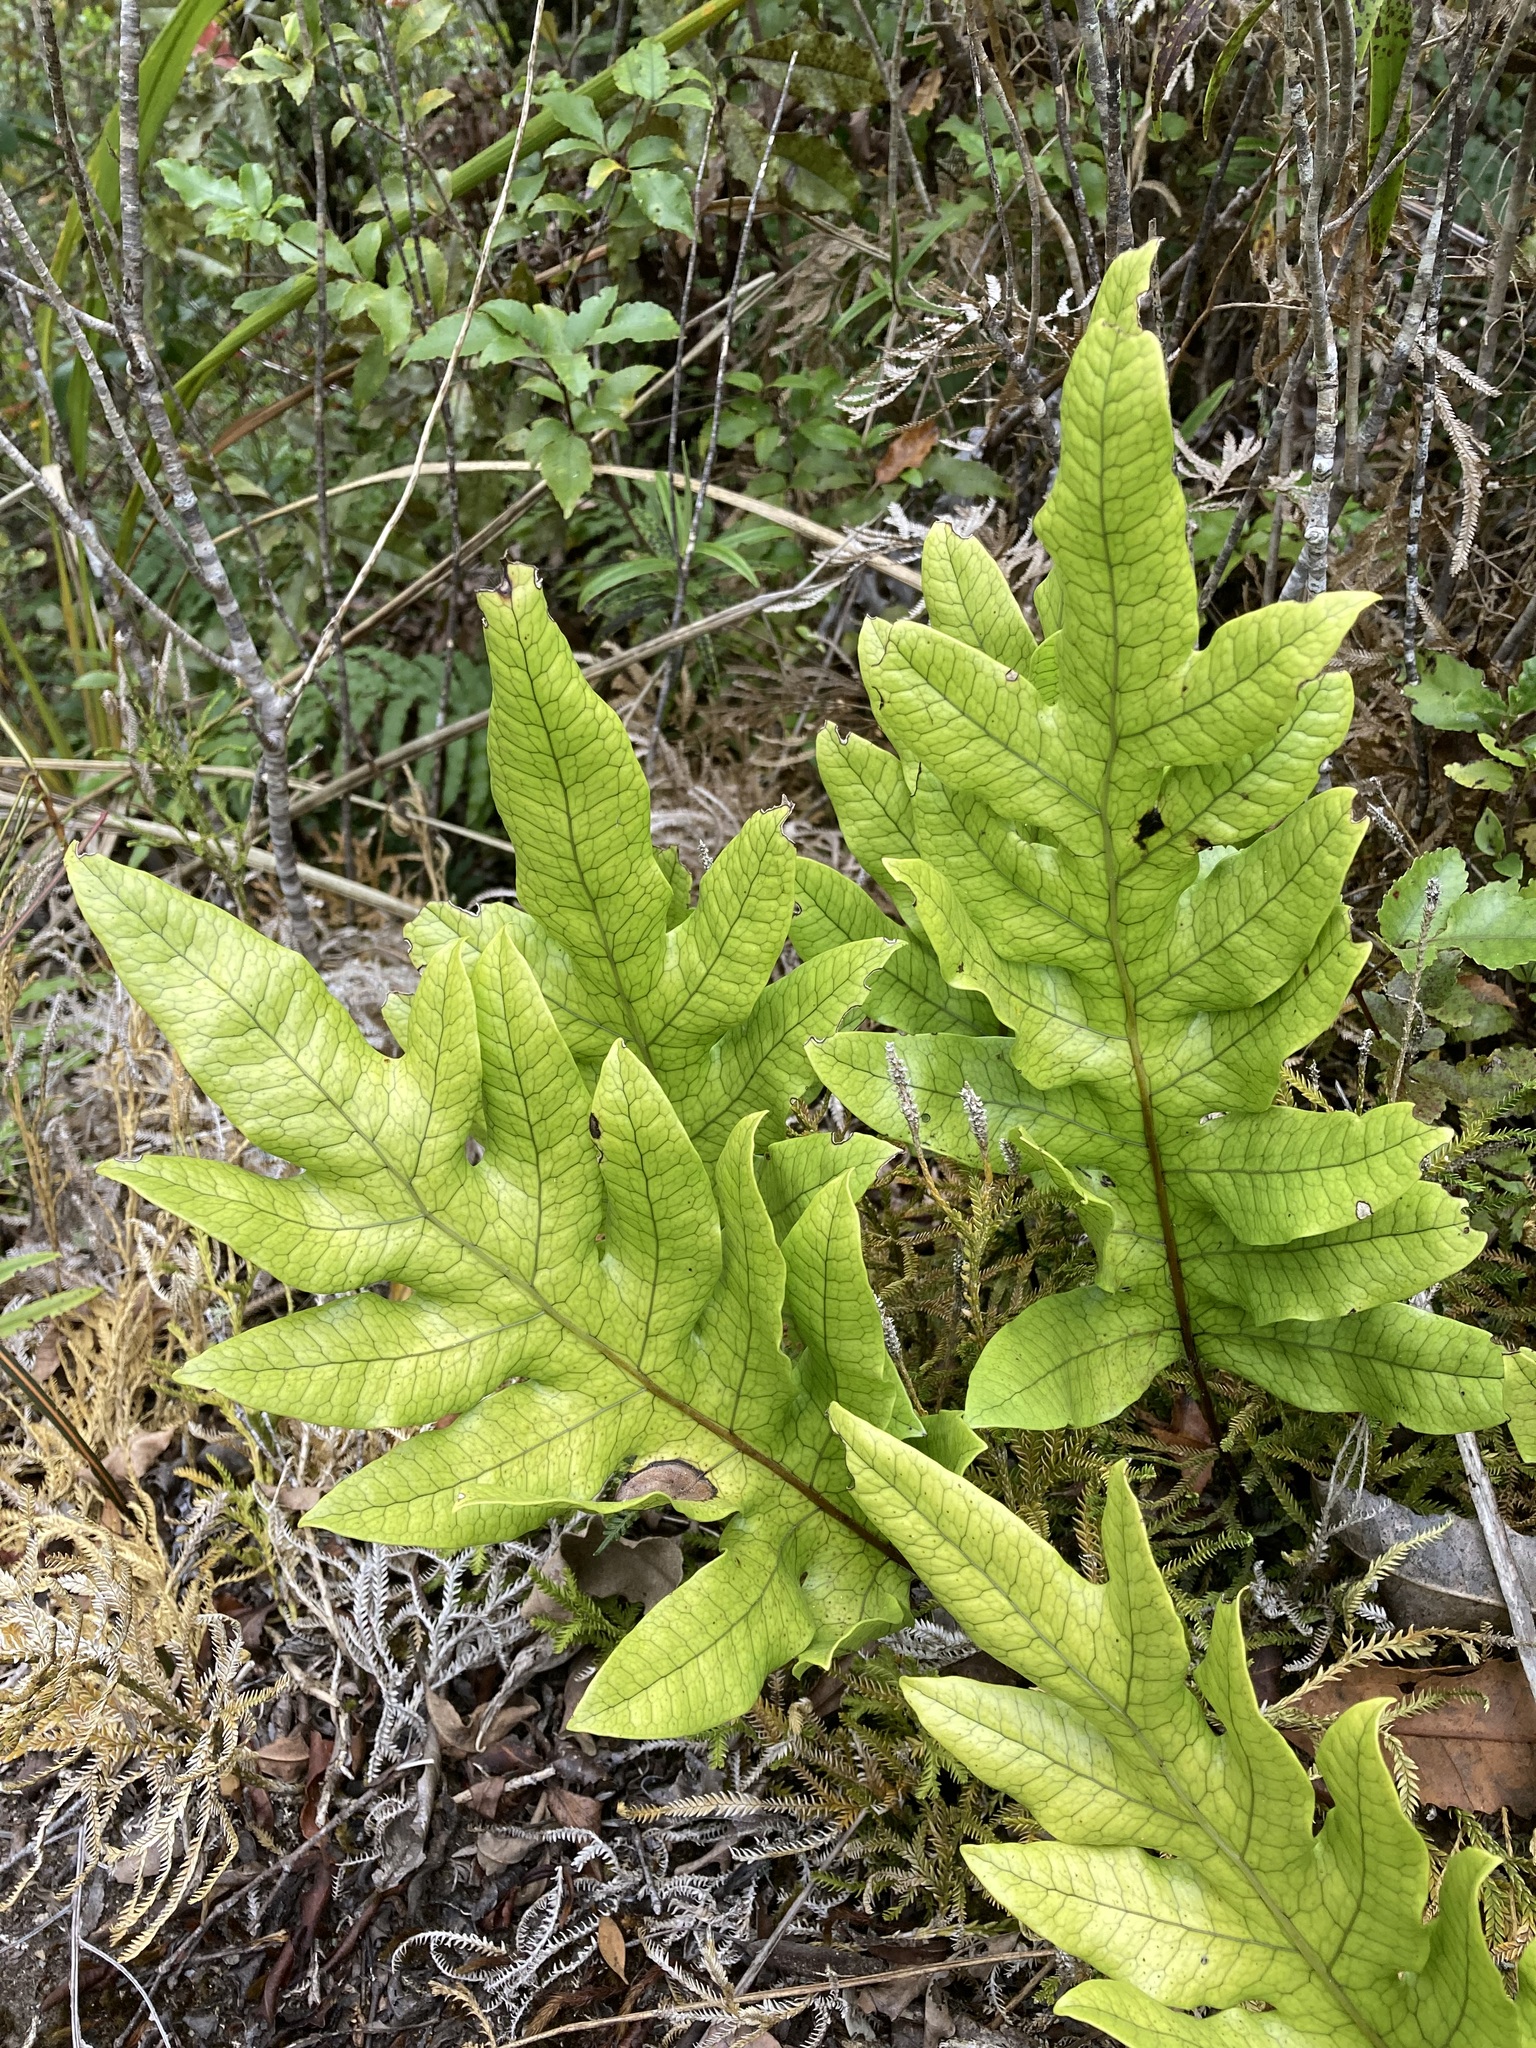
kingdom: Plantae
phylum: Tracheophyta
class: Polypodiopsida
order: Polypodiales
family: Polypodiaceae
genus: Lecanopteris
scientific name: Lecanopteris pustulata
